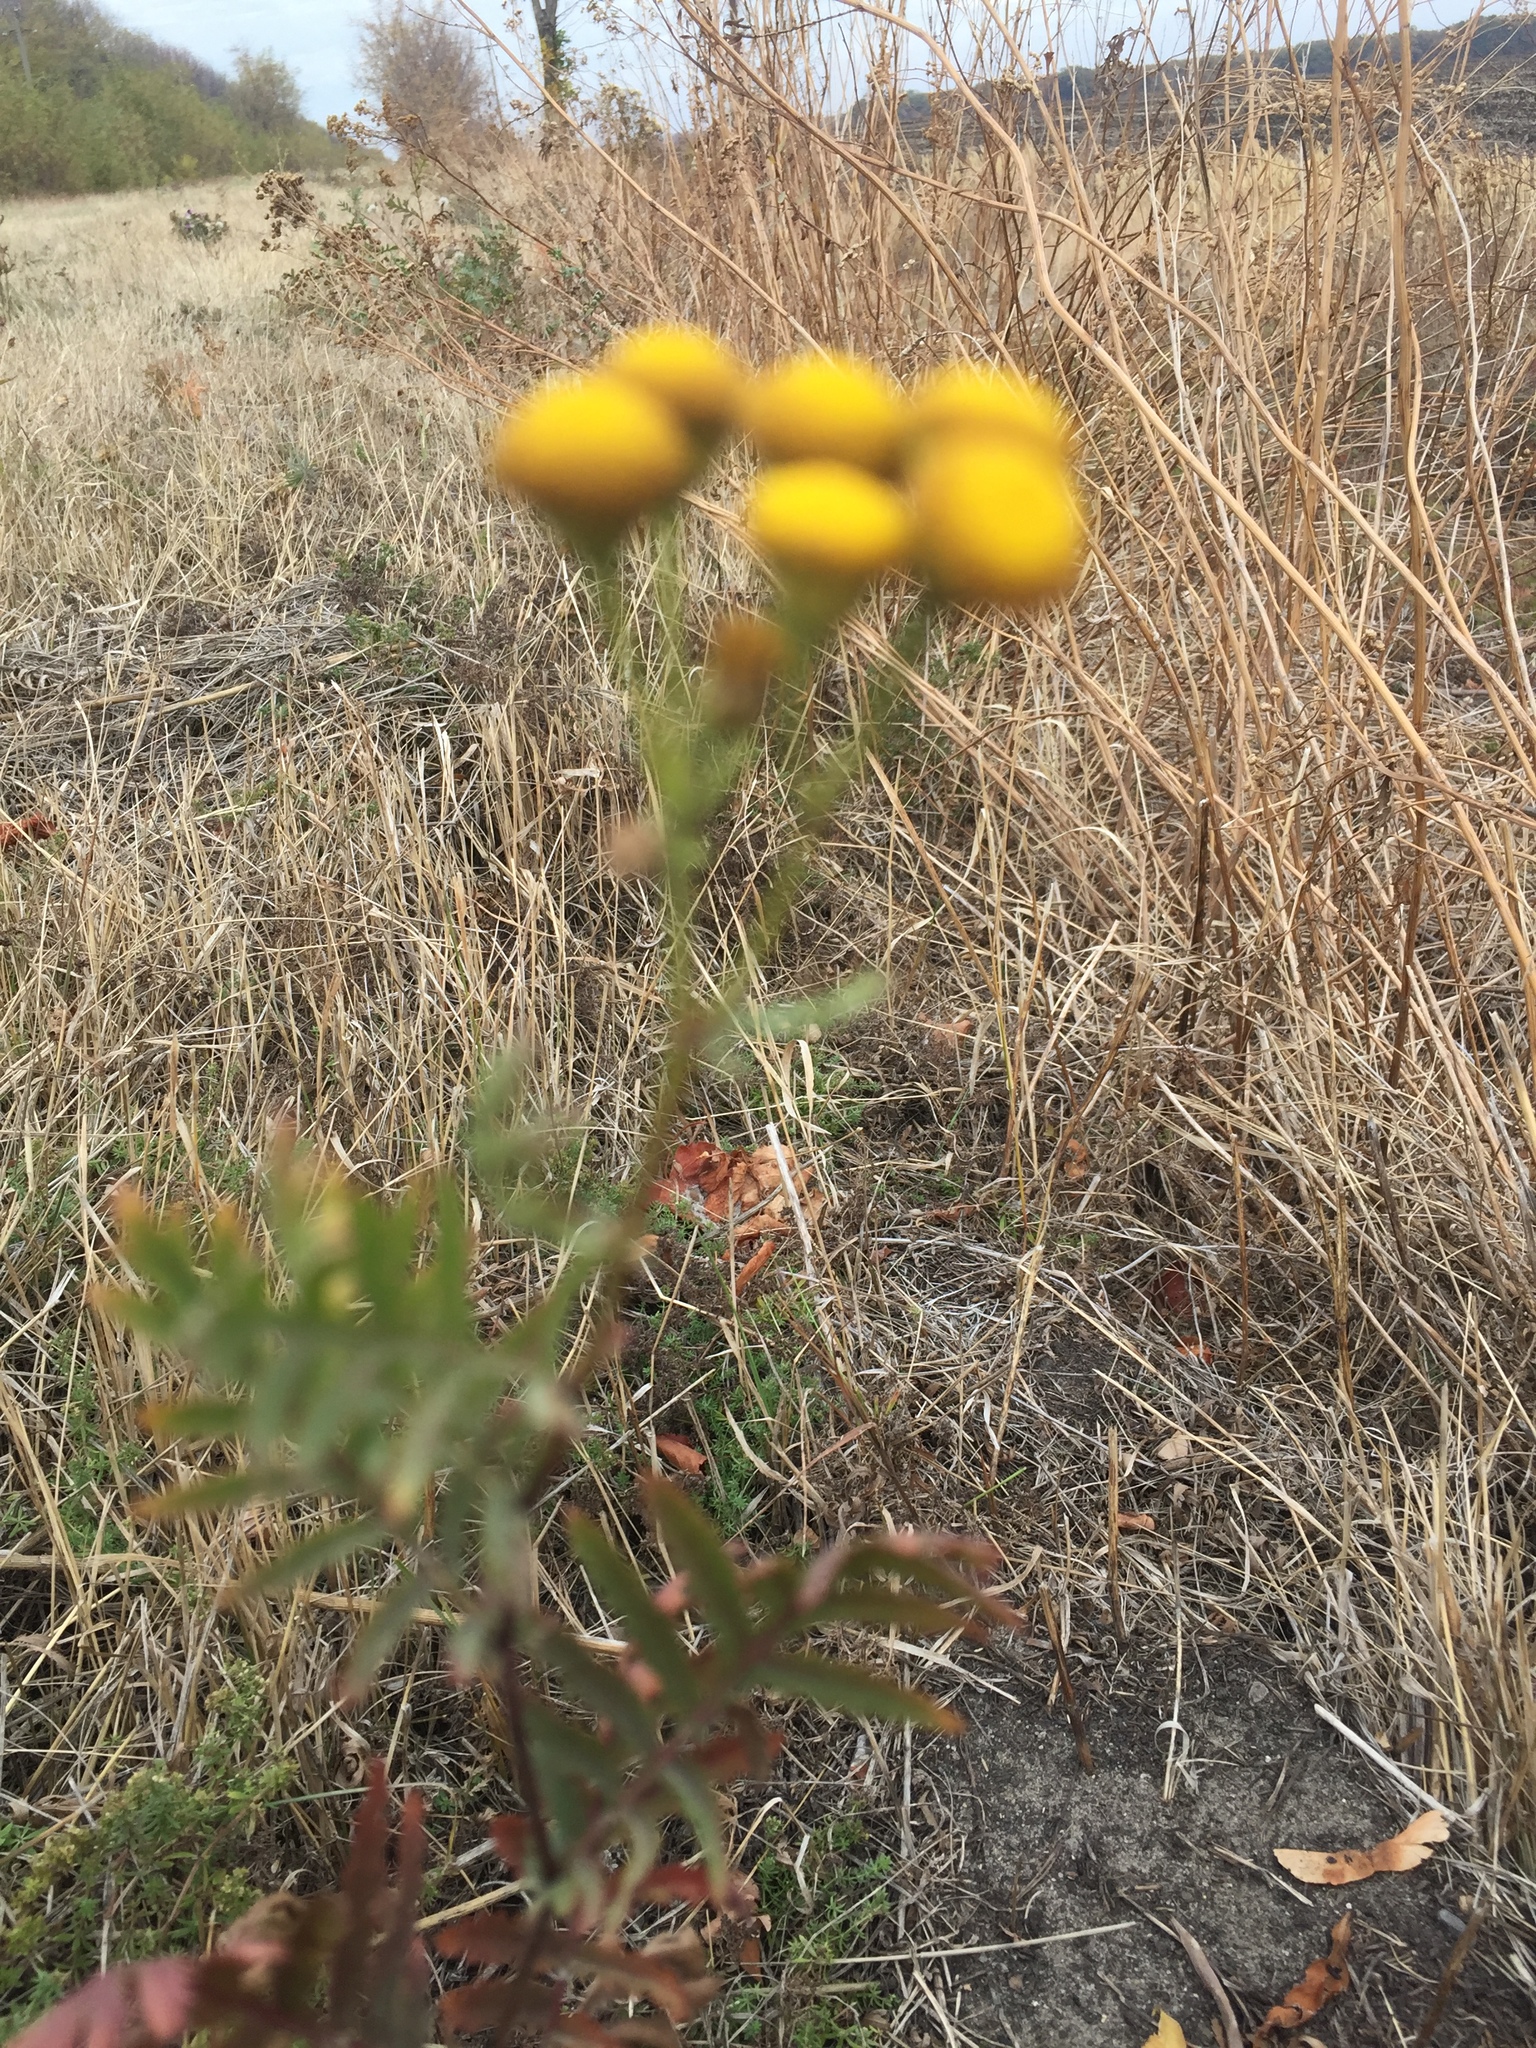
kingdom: Plantae
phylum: Tracheophyta
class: Magnoliopsida
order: Asterales
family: Asteraceae
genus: Tanacetum
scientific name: Tanacetum vulgare
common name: Common tansy
